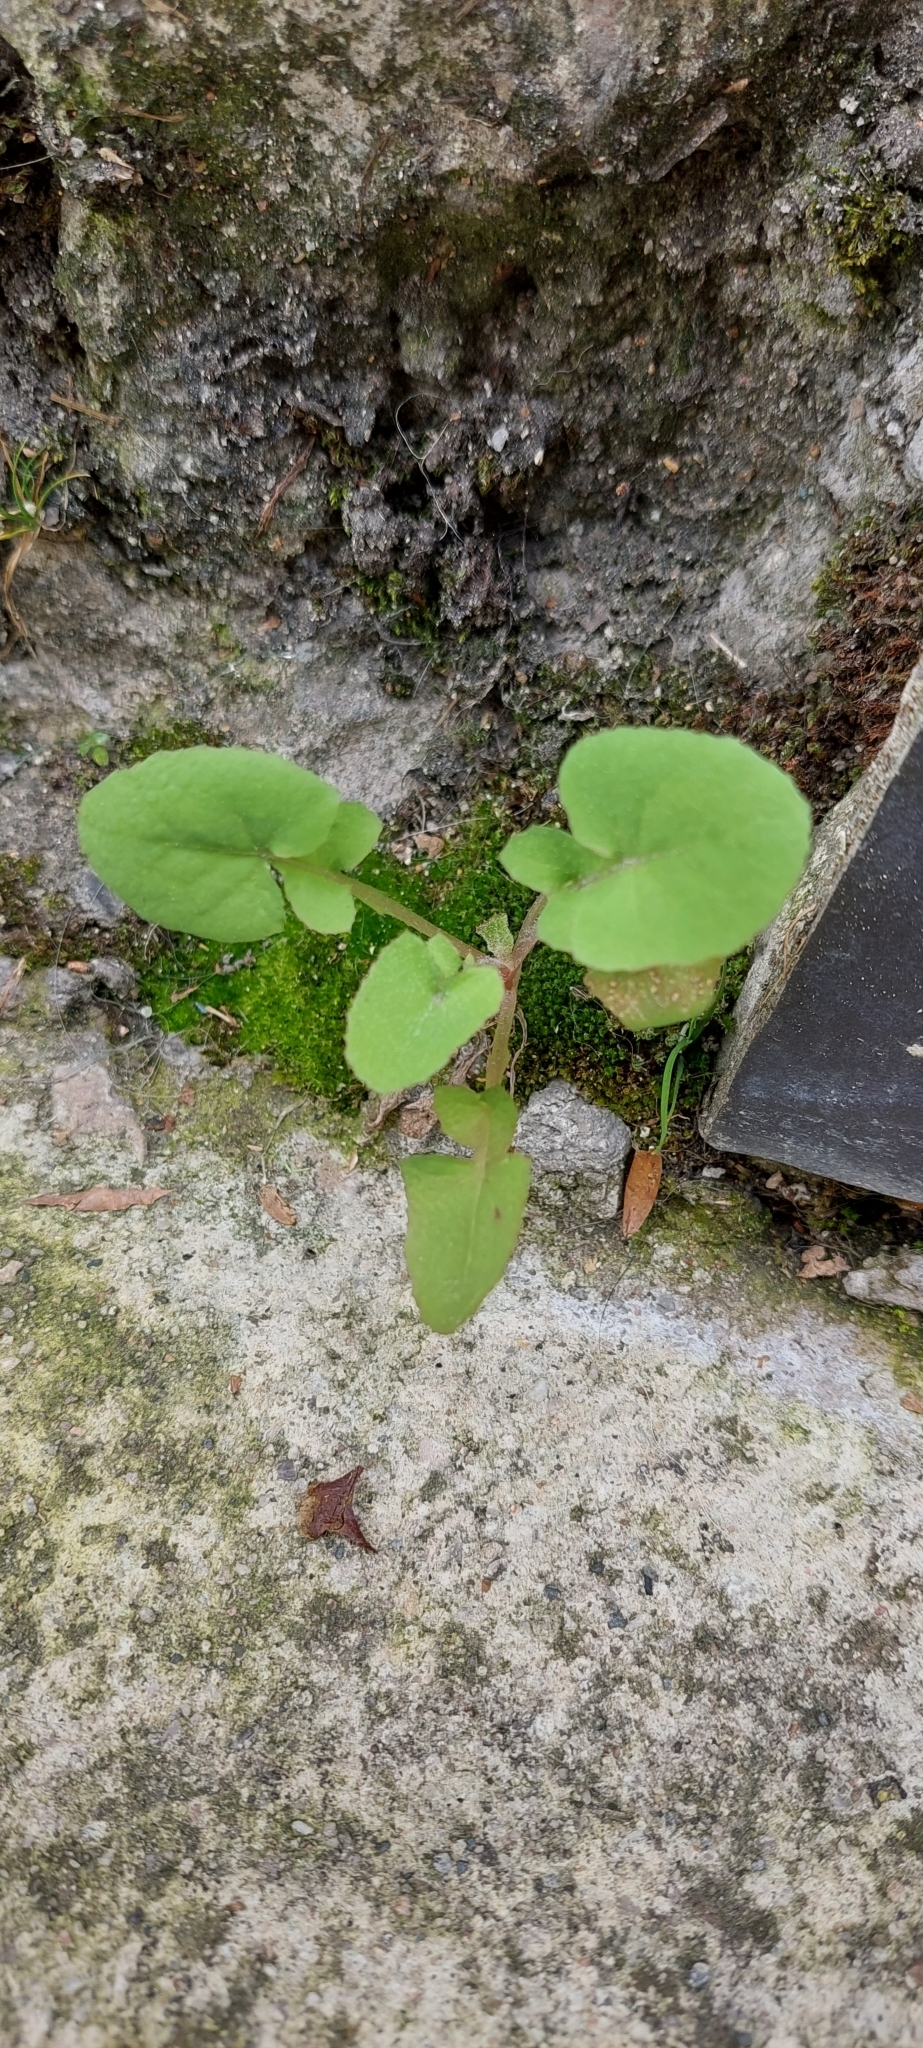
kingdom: Plantae
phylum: Tracheophyta
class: Magnoliopsida
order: Asterales
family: Asteraceae
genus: Sonchus
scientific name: Sonchus oleraceus
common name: Common sowthistle
